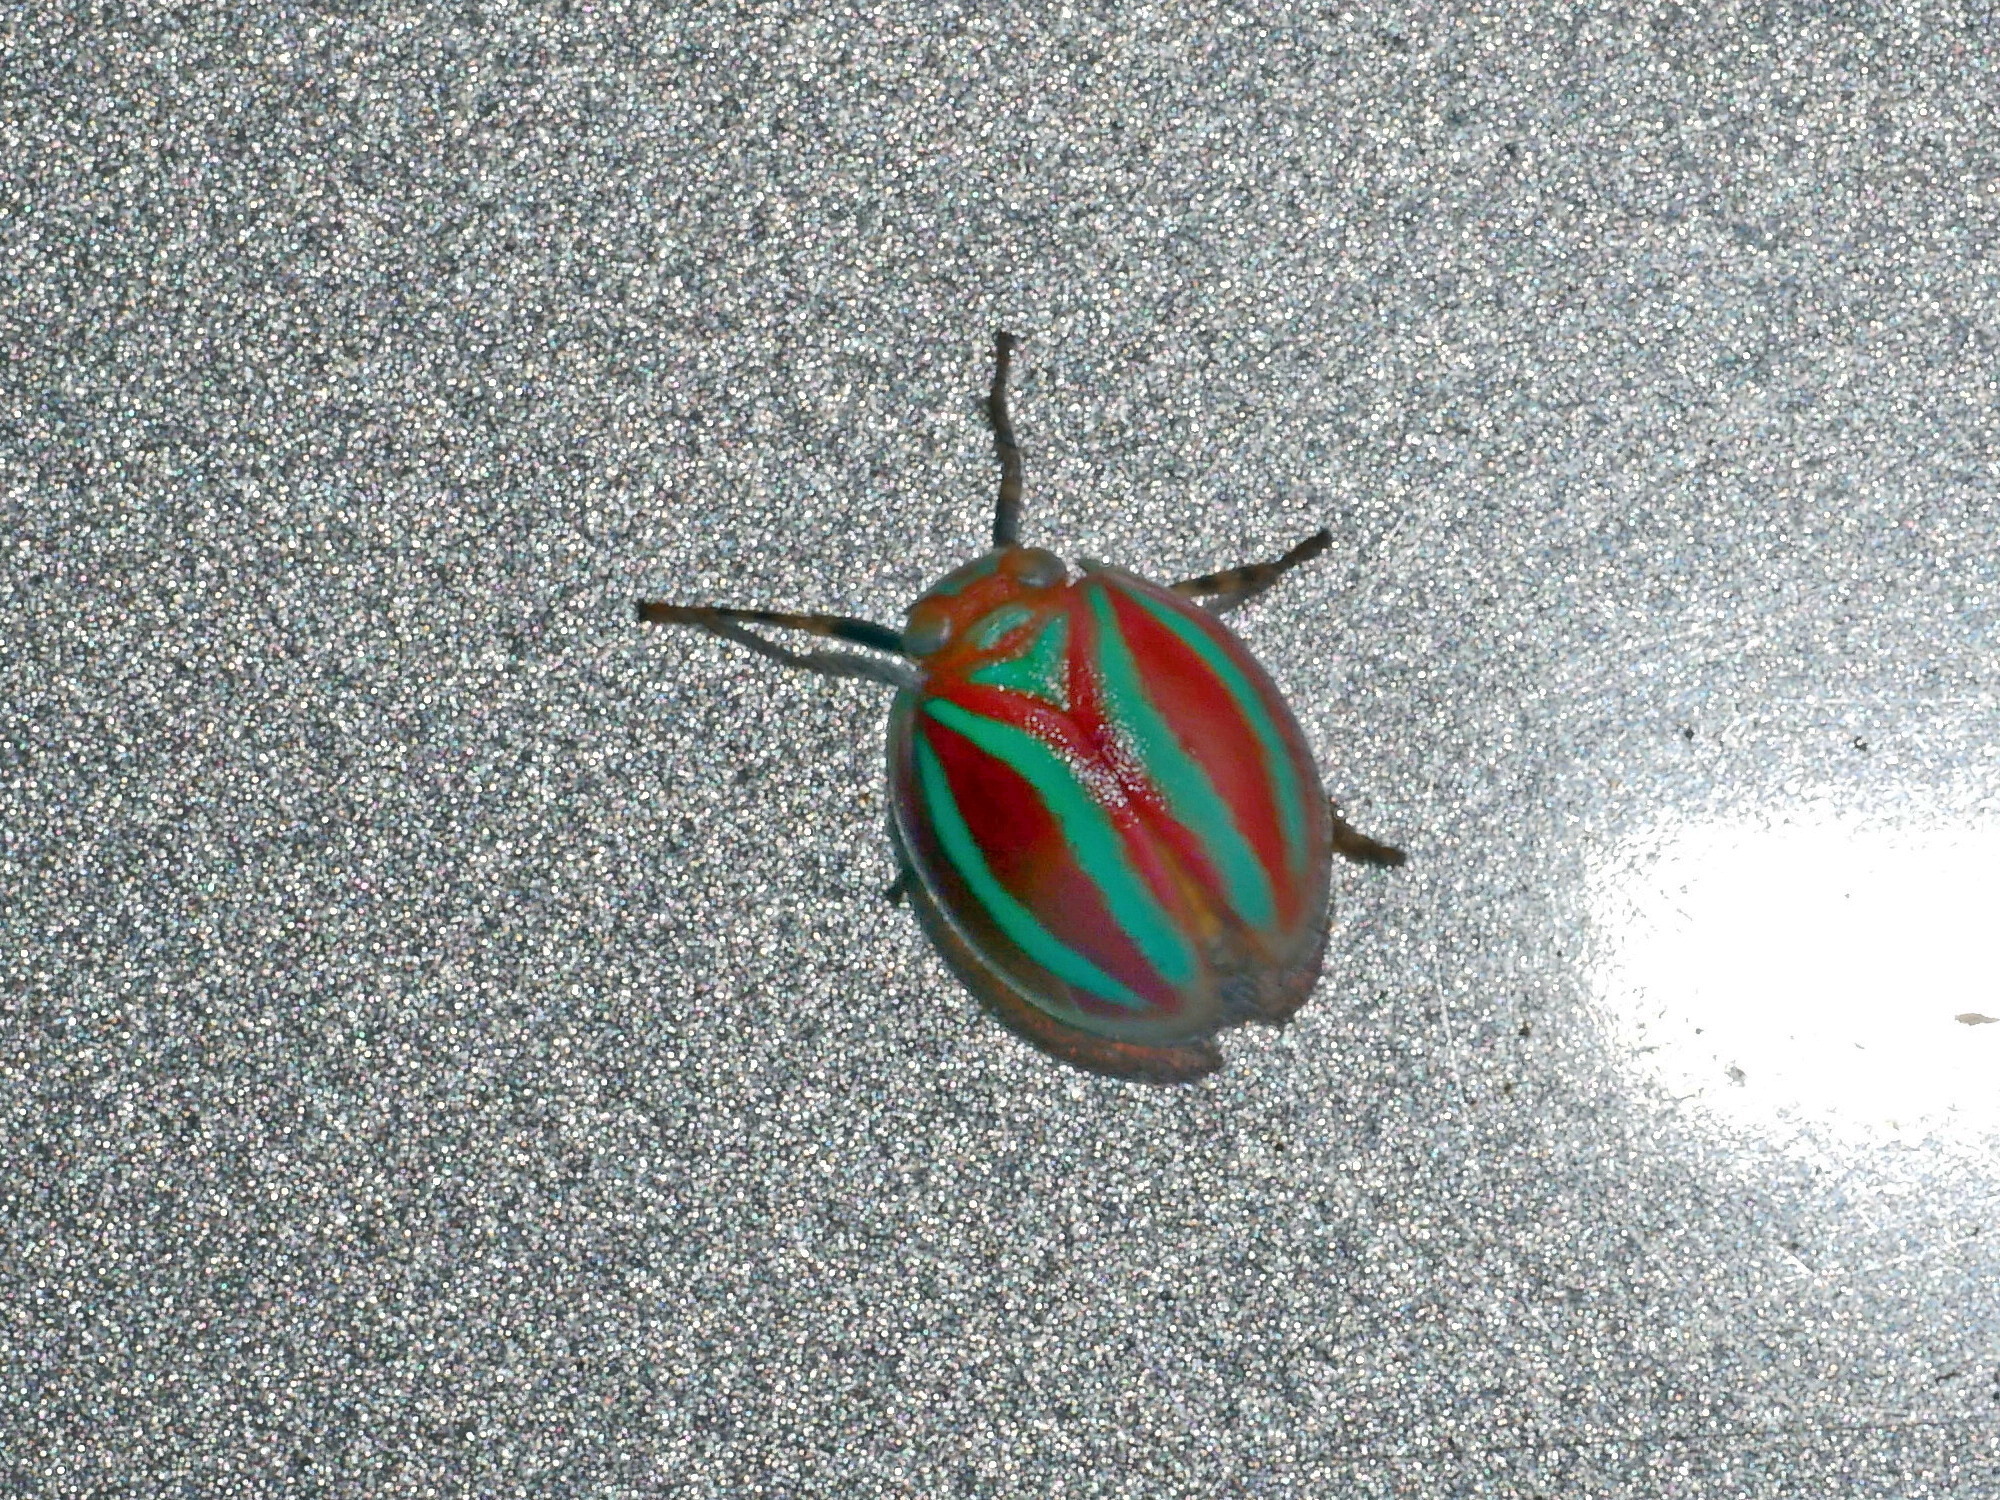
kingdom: Animalia
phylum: Arthropoda
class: Insecta
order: Hemiptera
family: Issidae
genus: Hemisphaerius
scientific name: Hemisphaerius formosus
